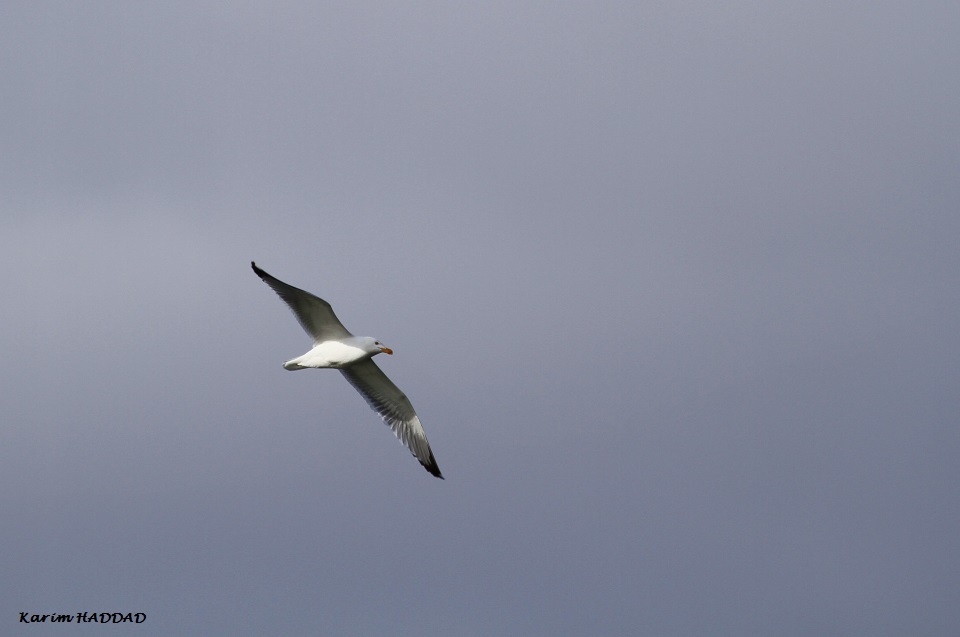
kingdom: Animalia
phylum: Chordata
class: Aves
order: Charadriiformes
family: Laridae
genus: Larus
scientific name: Larus michahellis
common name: Yellow-legged gull
